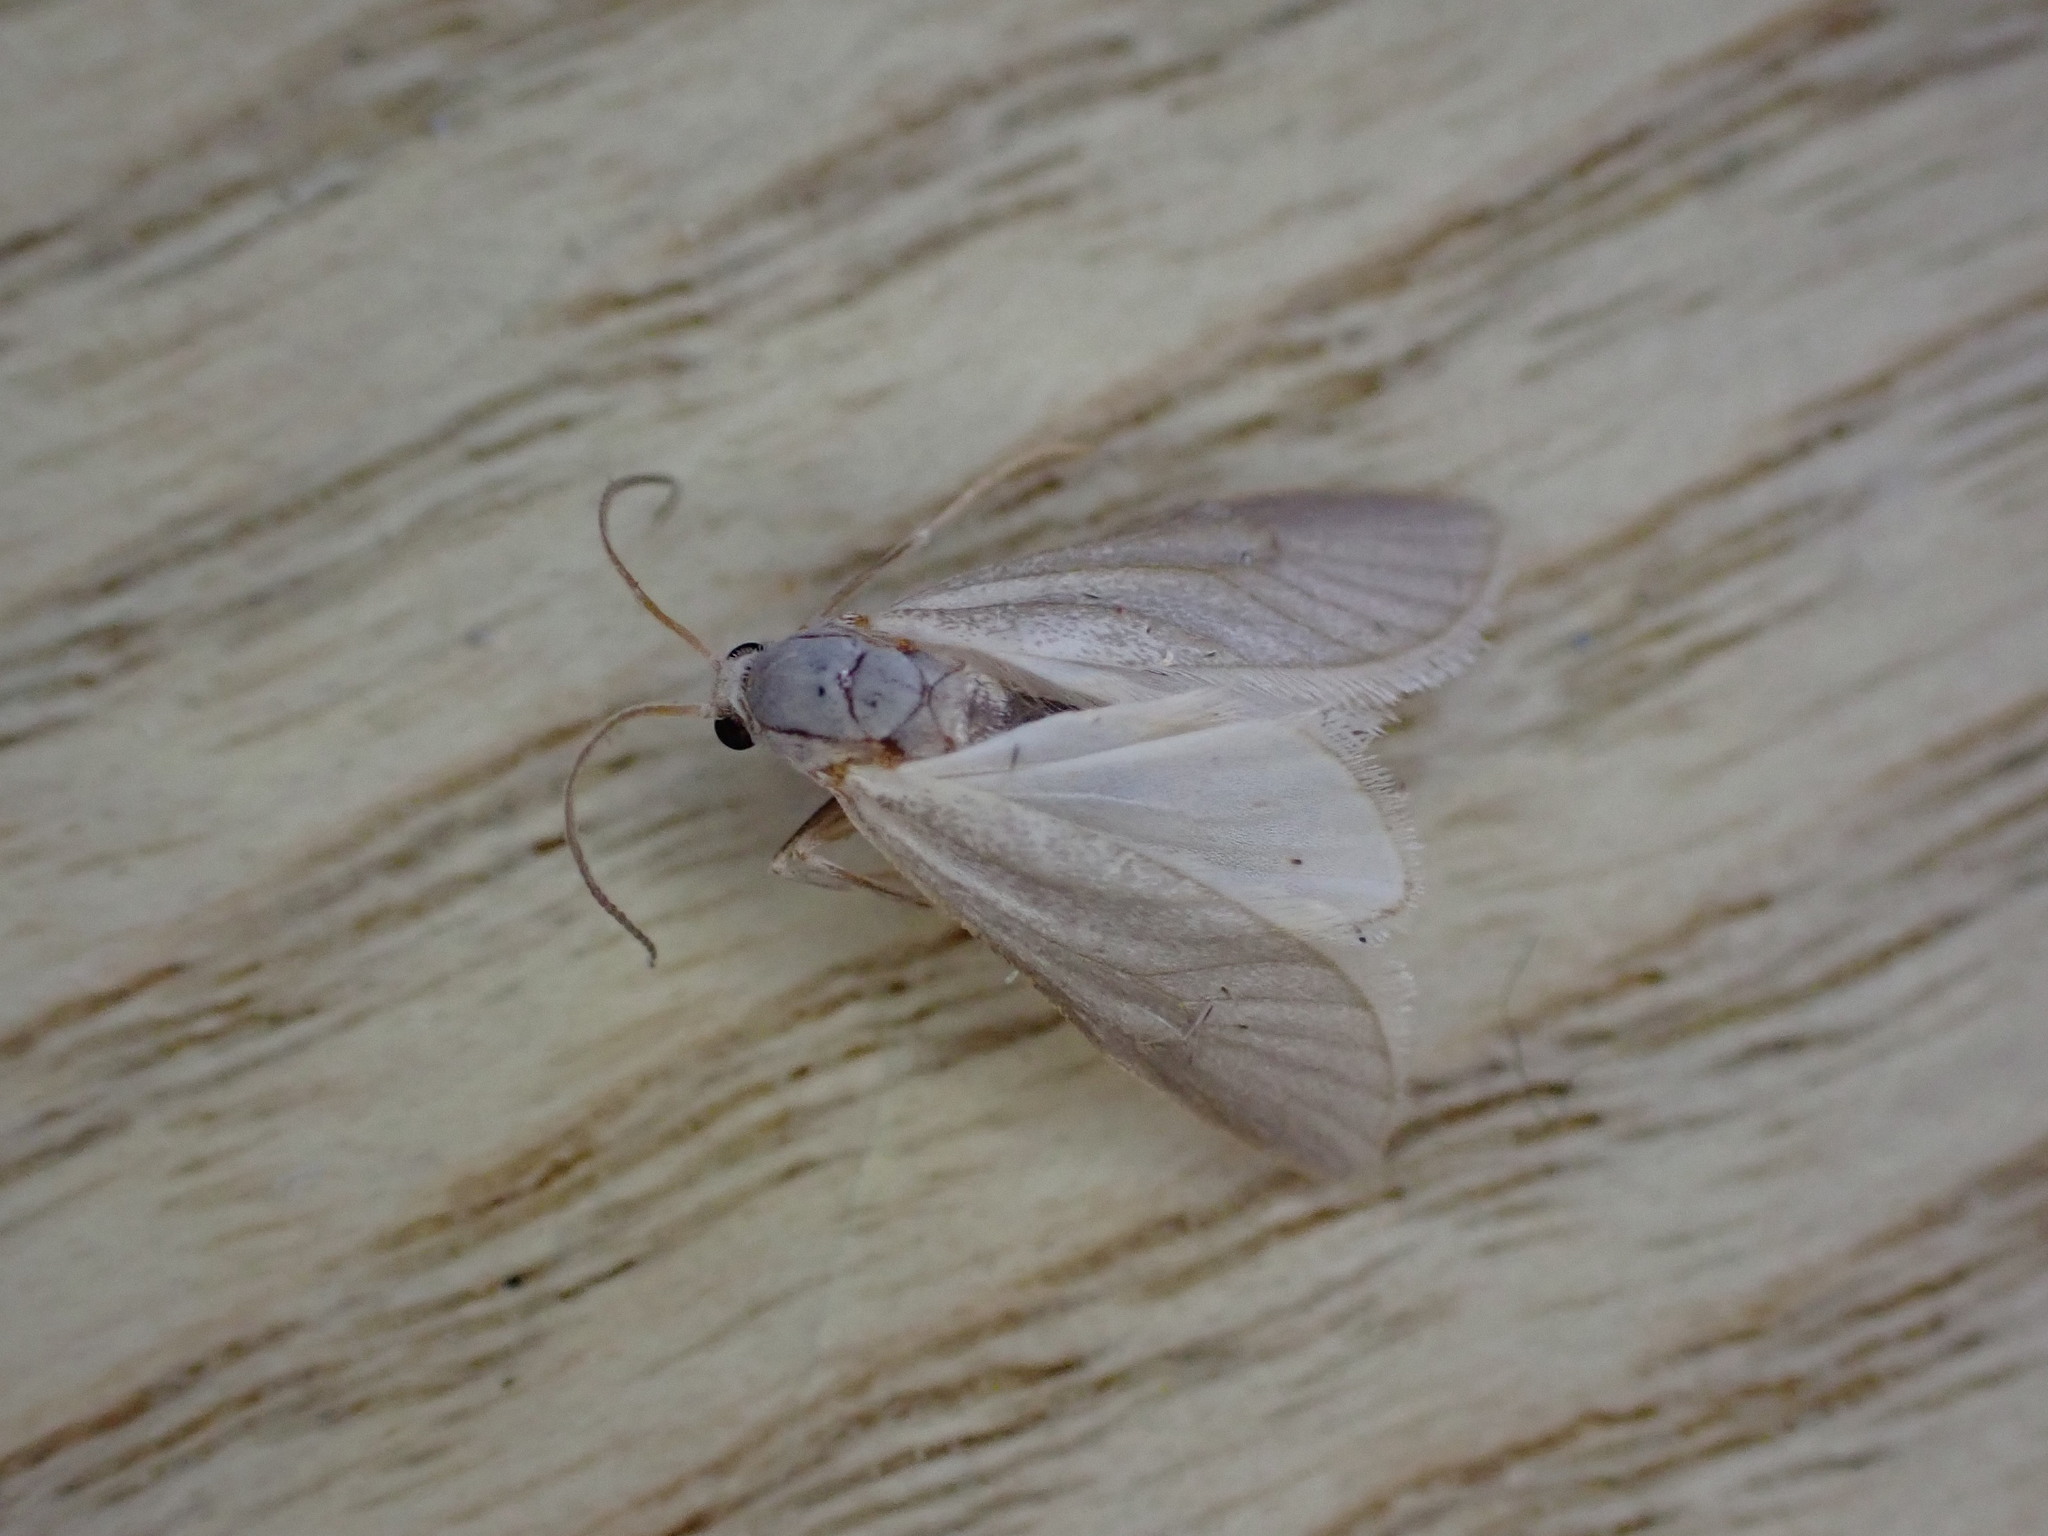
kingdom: Animalia
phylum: Arthropoda
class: Insecta
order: Lepidoptera
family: Crambidae
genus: Acentria
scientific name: Acentria ephemerella
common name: European water moth
